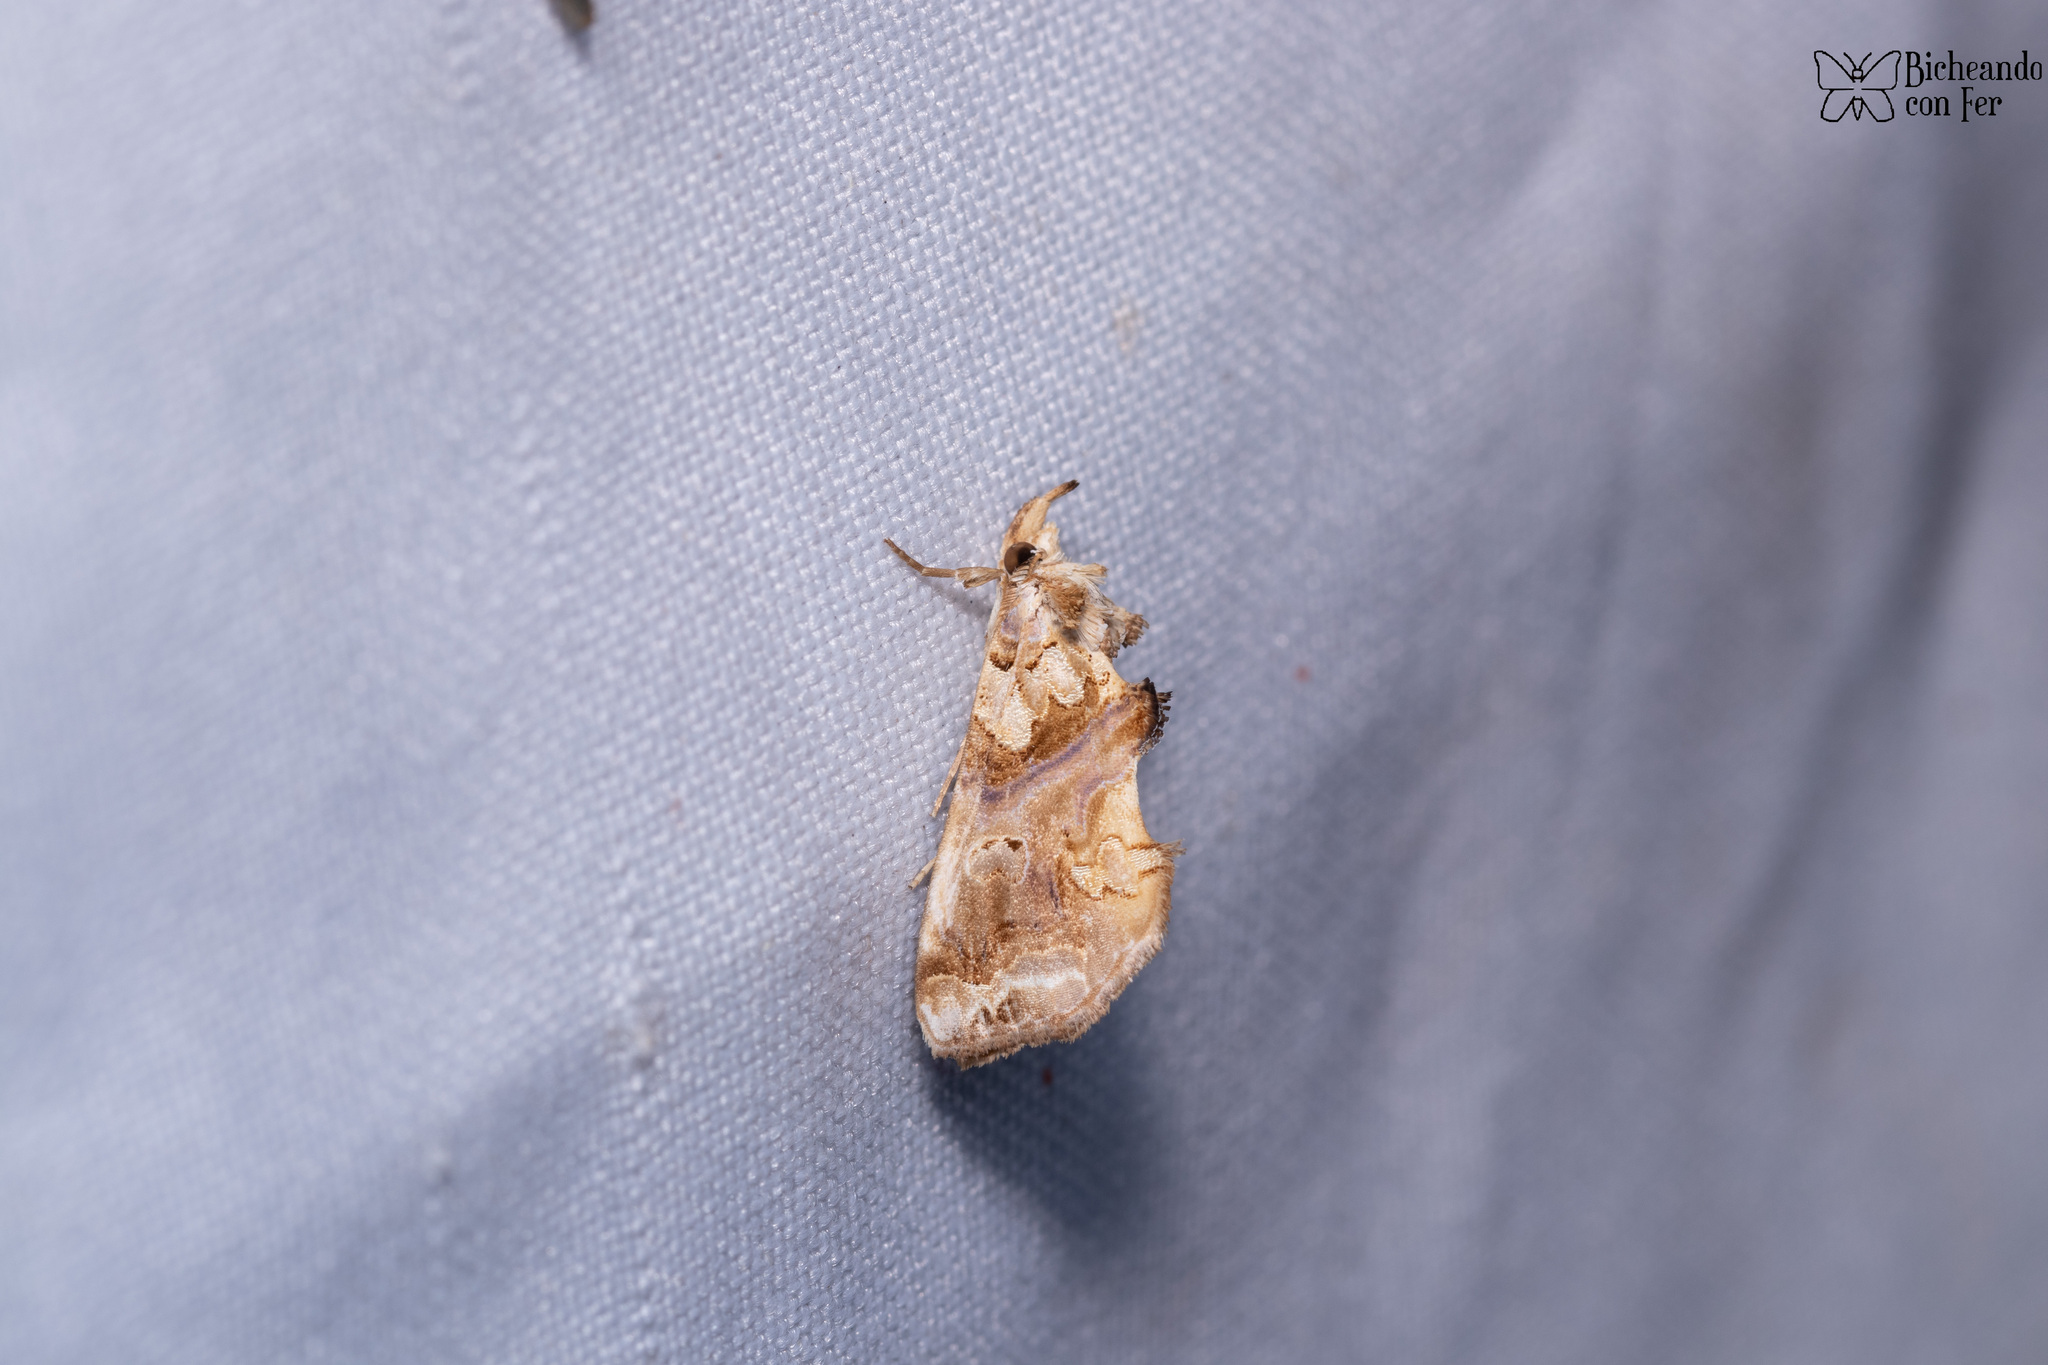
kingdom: Animalia
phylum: Arthropoda
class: Insecta
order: Lepidoptera
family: Erebidae
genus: Plusiodonta
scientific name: Plusiodonta compressipalpis
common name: Moonseed moth
